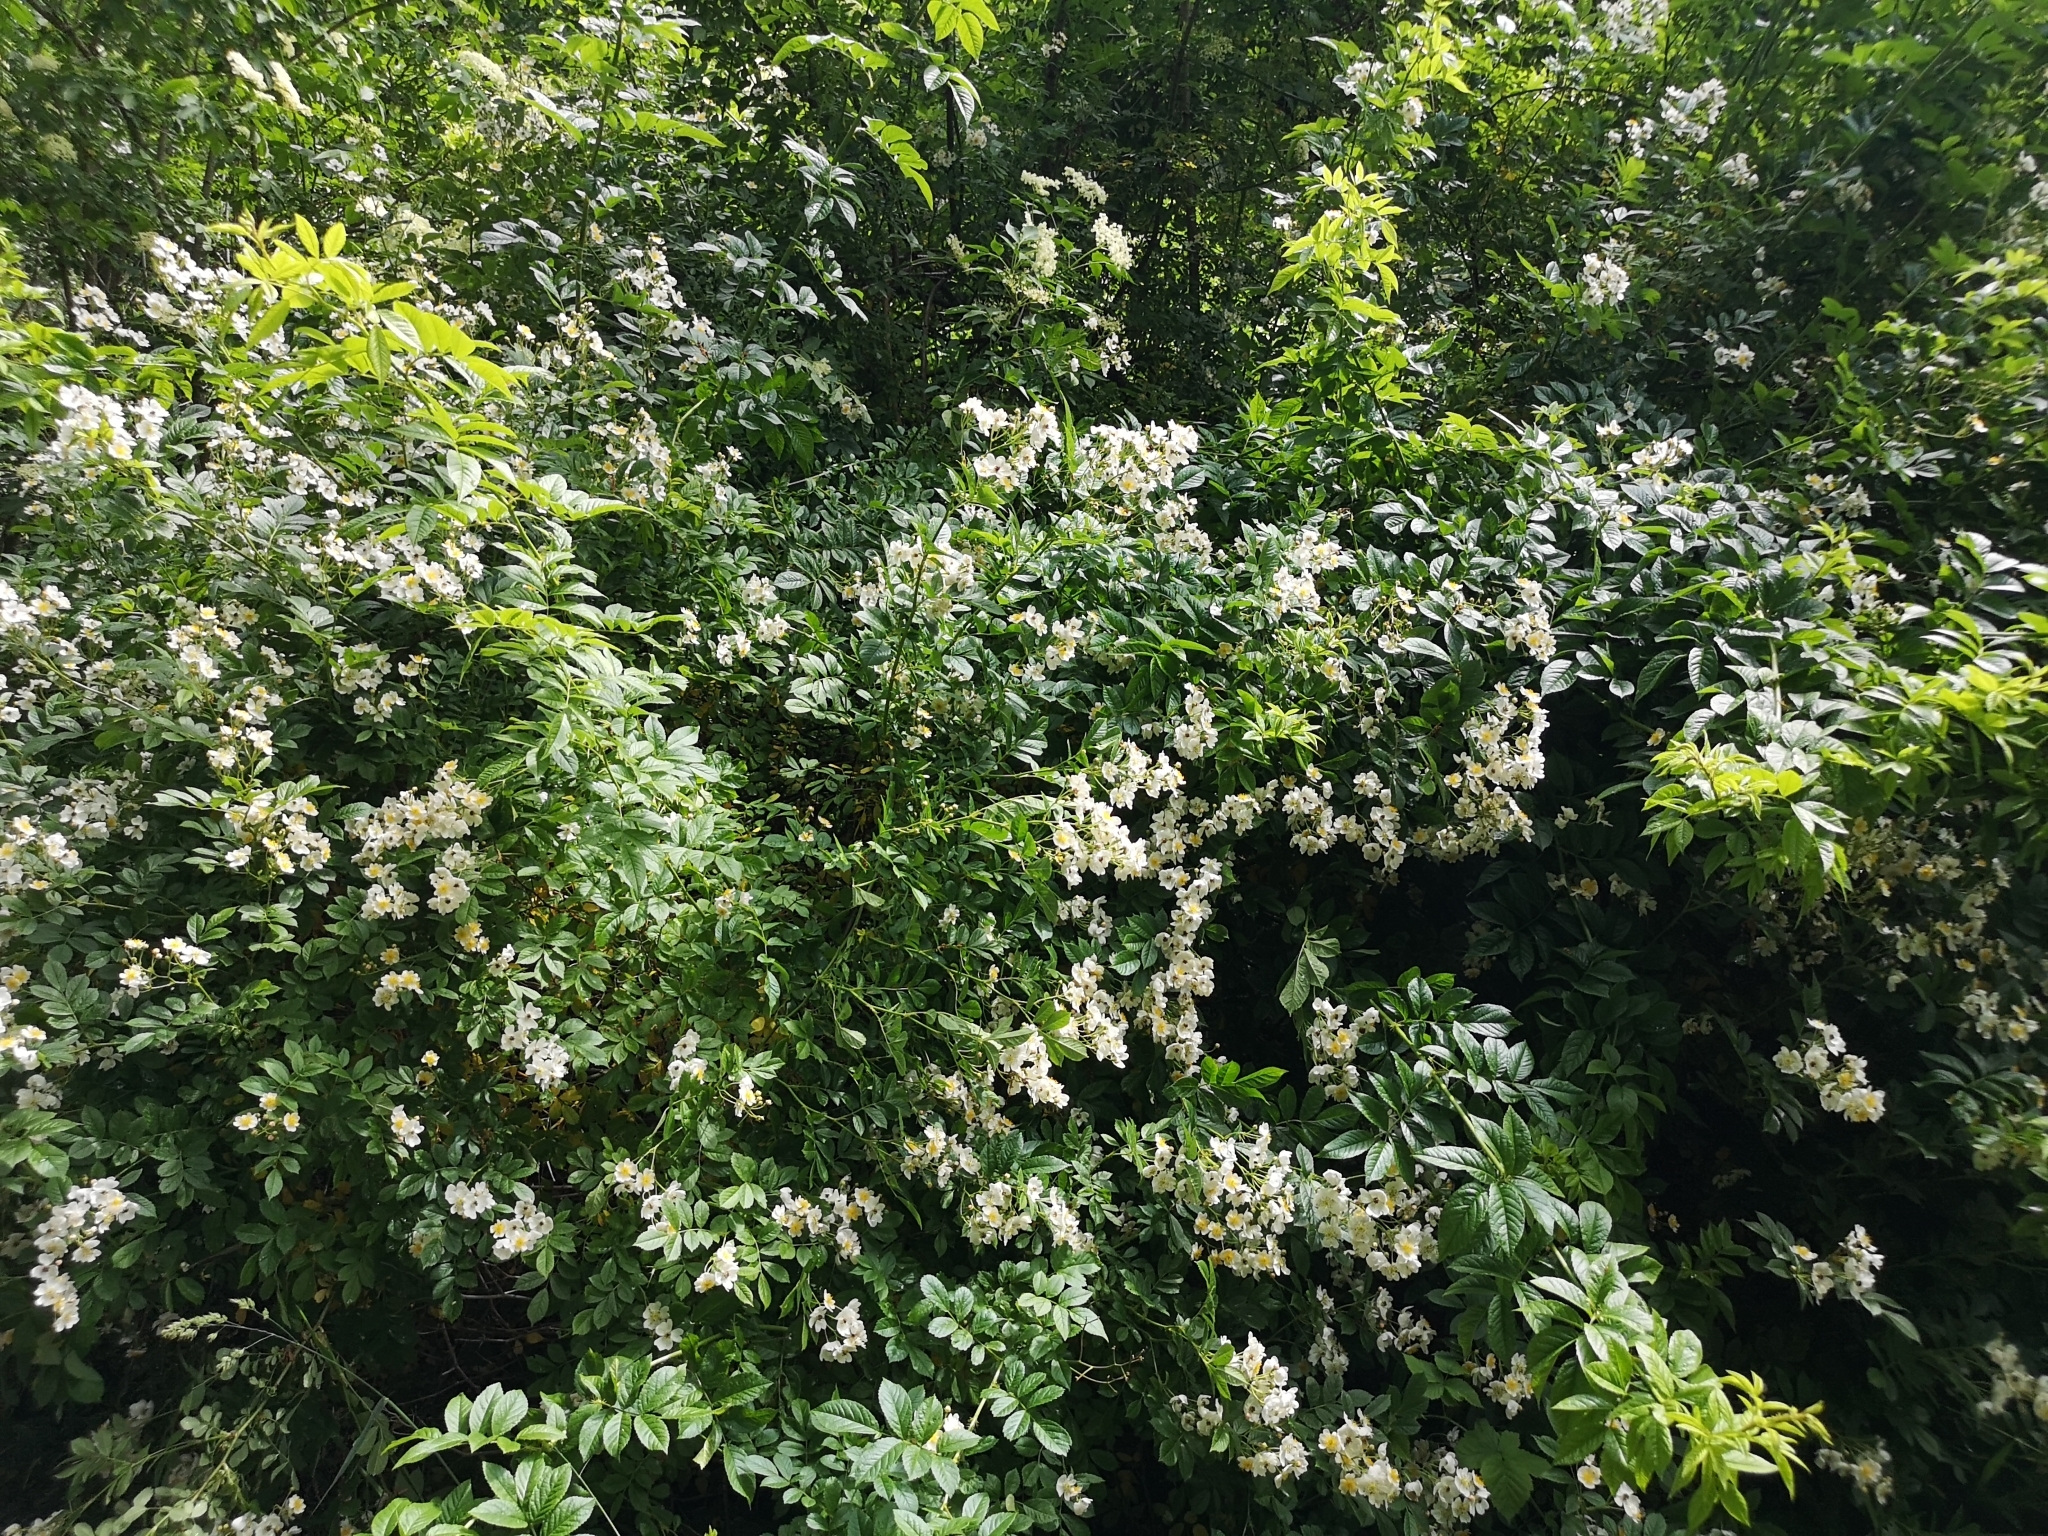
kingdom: Plantae
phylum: Tracheophyta
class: Magnoliopsida
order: Rosales
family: Rosaceae
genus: Rosa
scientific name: Rosa multiflora
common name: Multiflora rose
